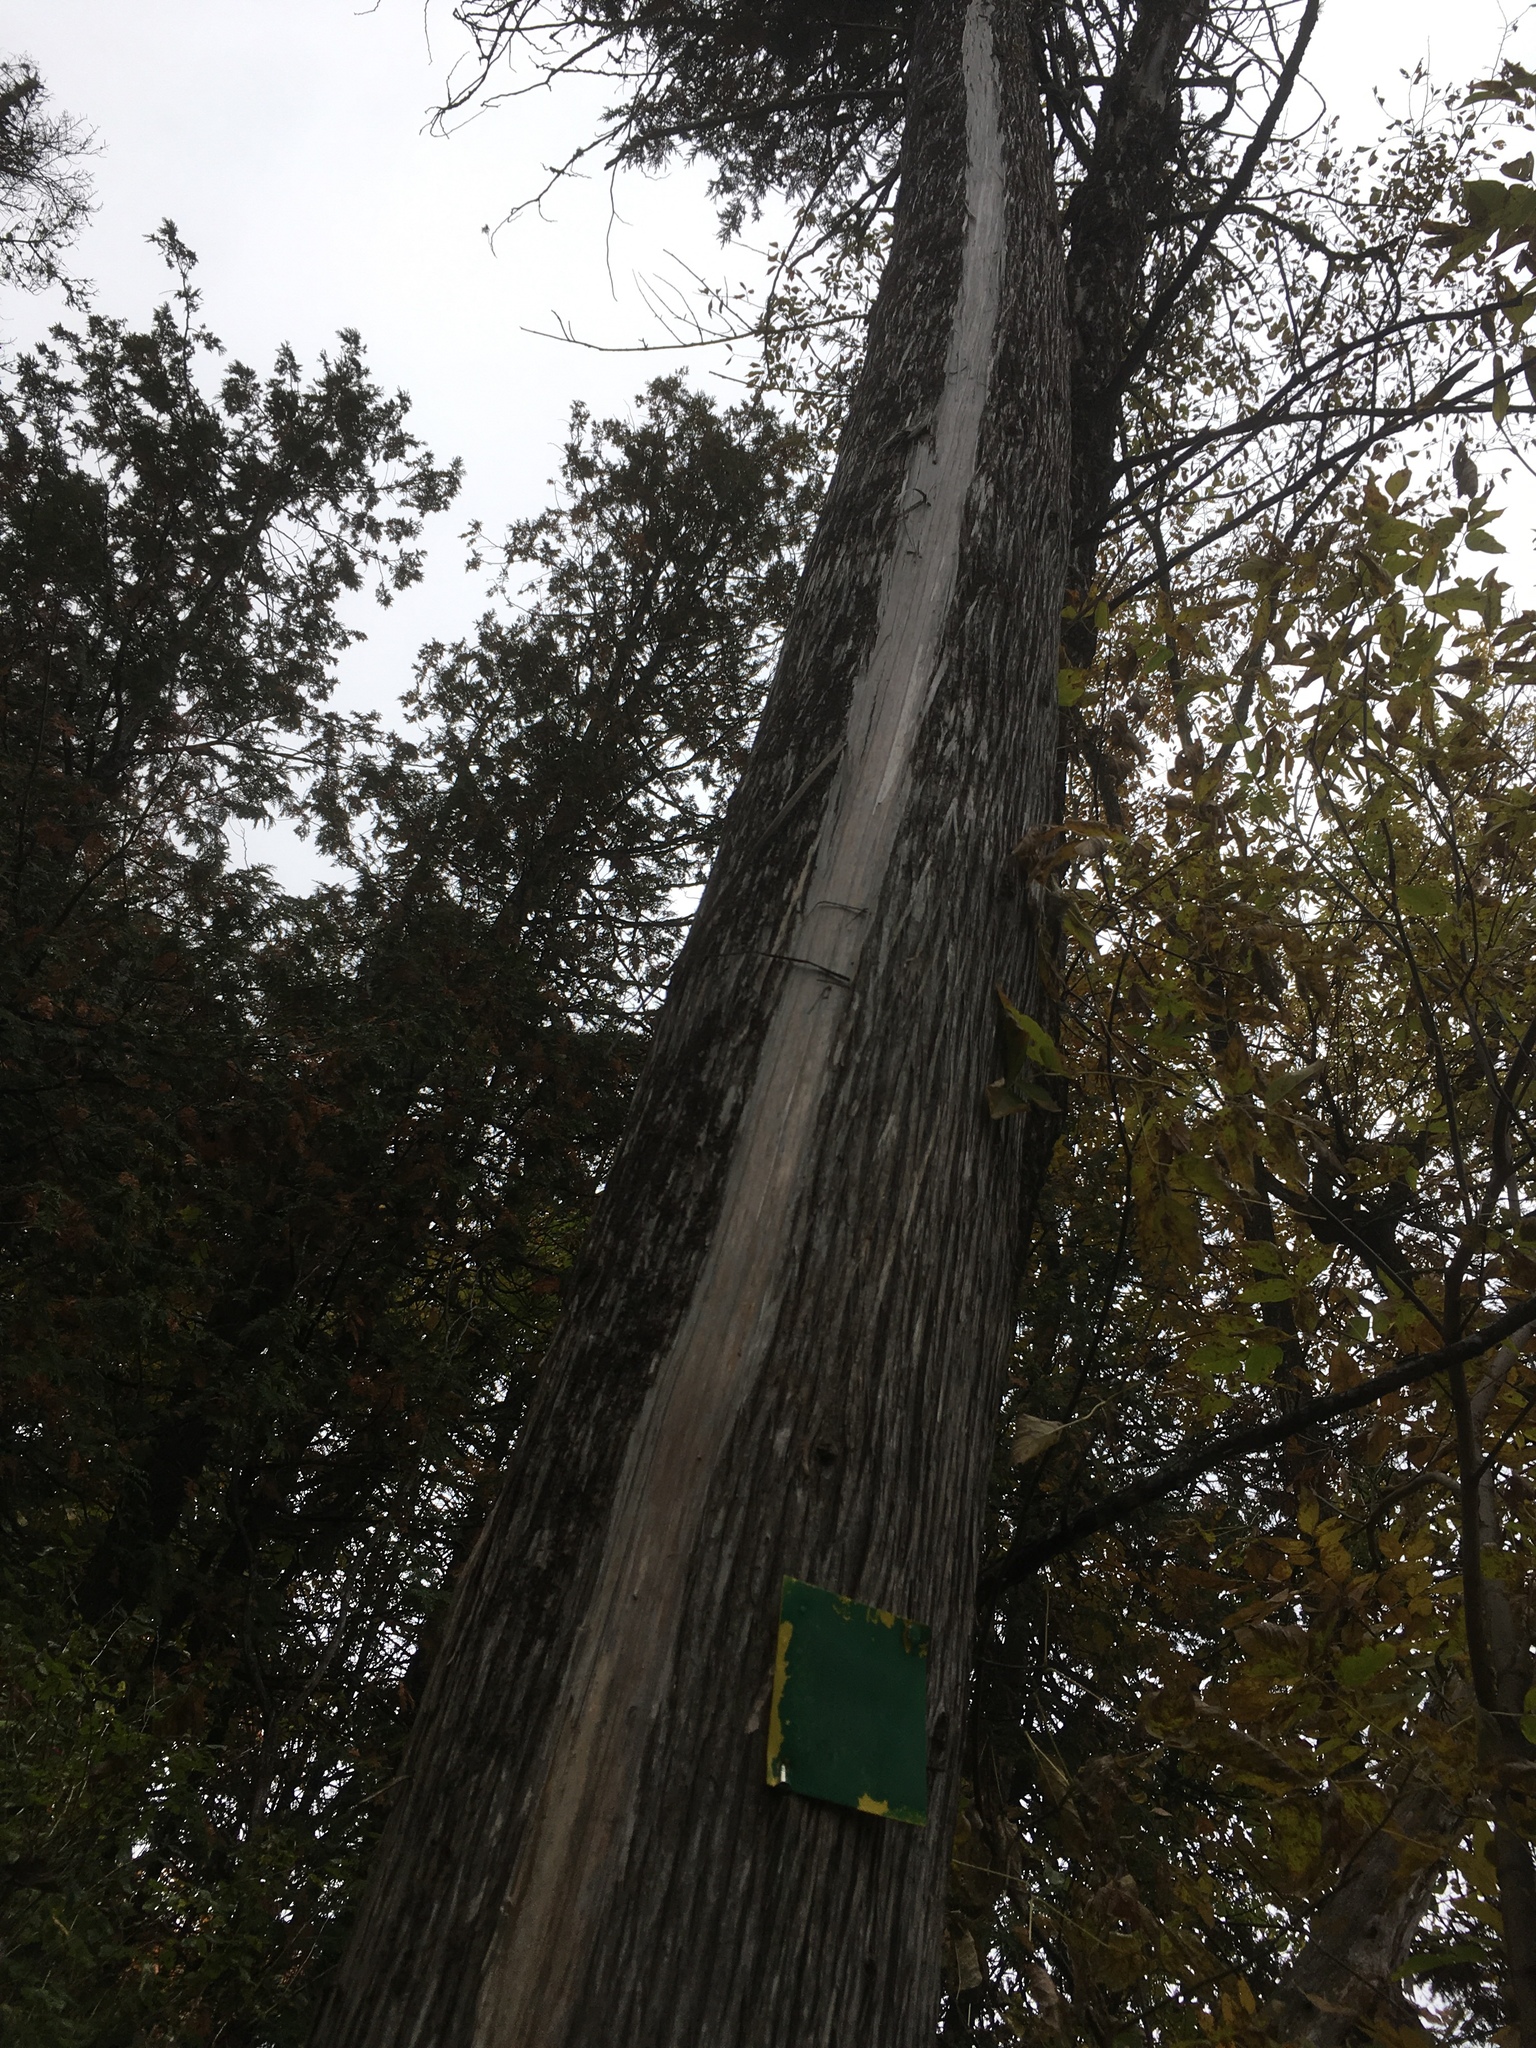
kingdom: Plantae
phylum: Tracheophyta
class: Pinopsida
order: Pinales
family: Cupressaceae
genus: Thuja
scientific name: Thuja occidentalis
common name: Northern white-cedar
